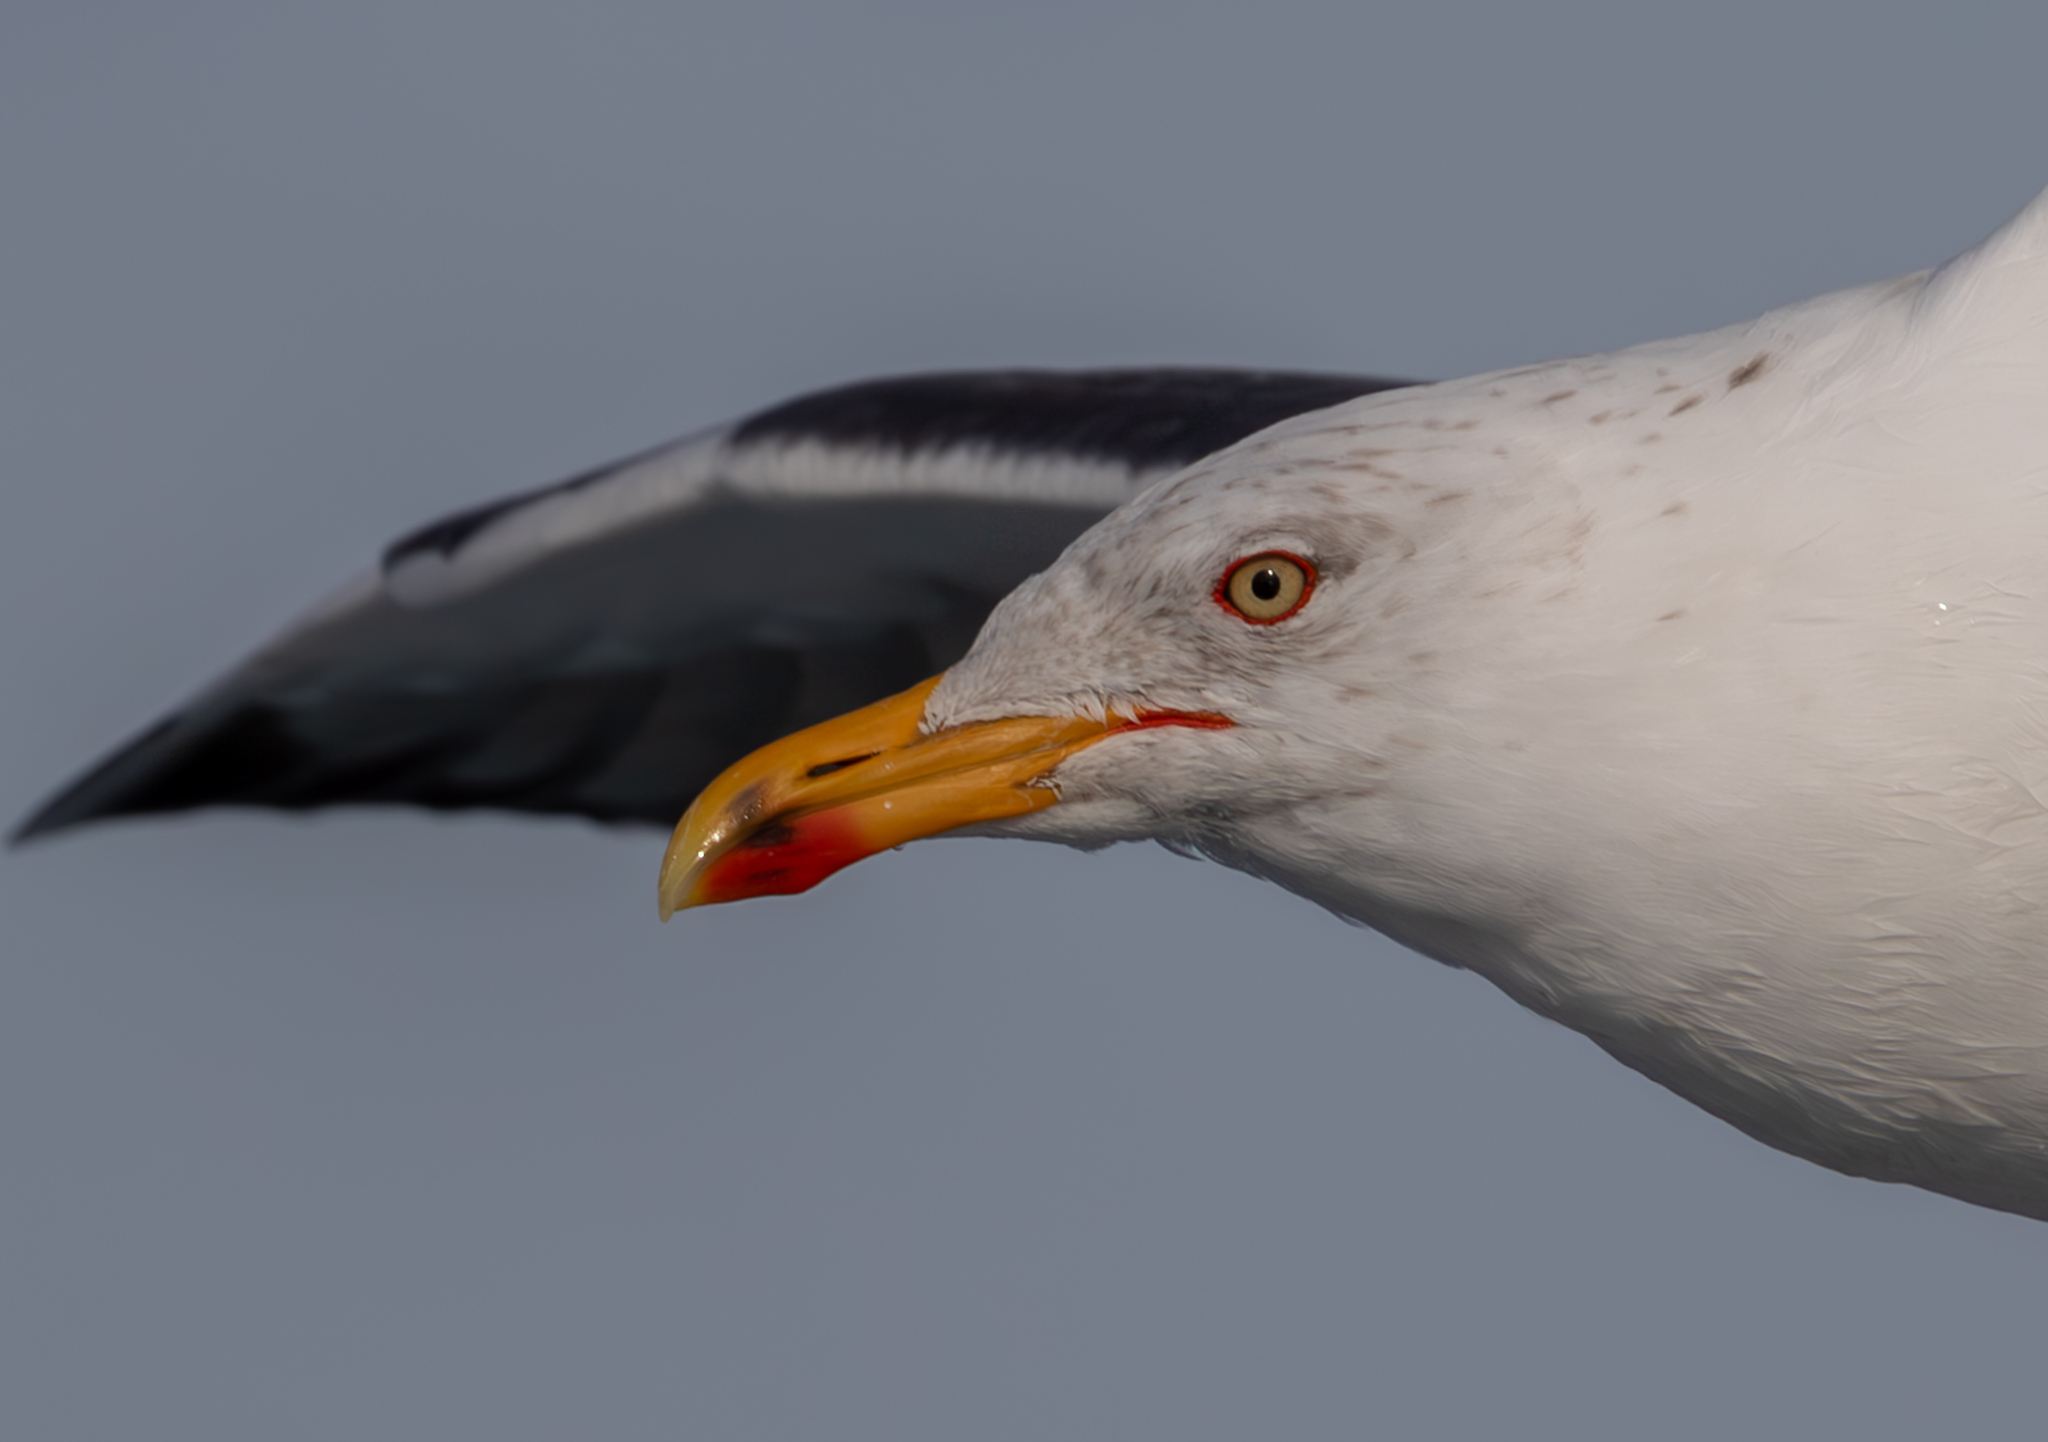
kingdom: Animalia
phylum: Chordata
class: Aves
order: Charadriiformes
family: Laridae
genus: Larus
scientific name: Larus fuscus
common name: Lesser black-backed gull
